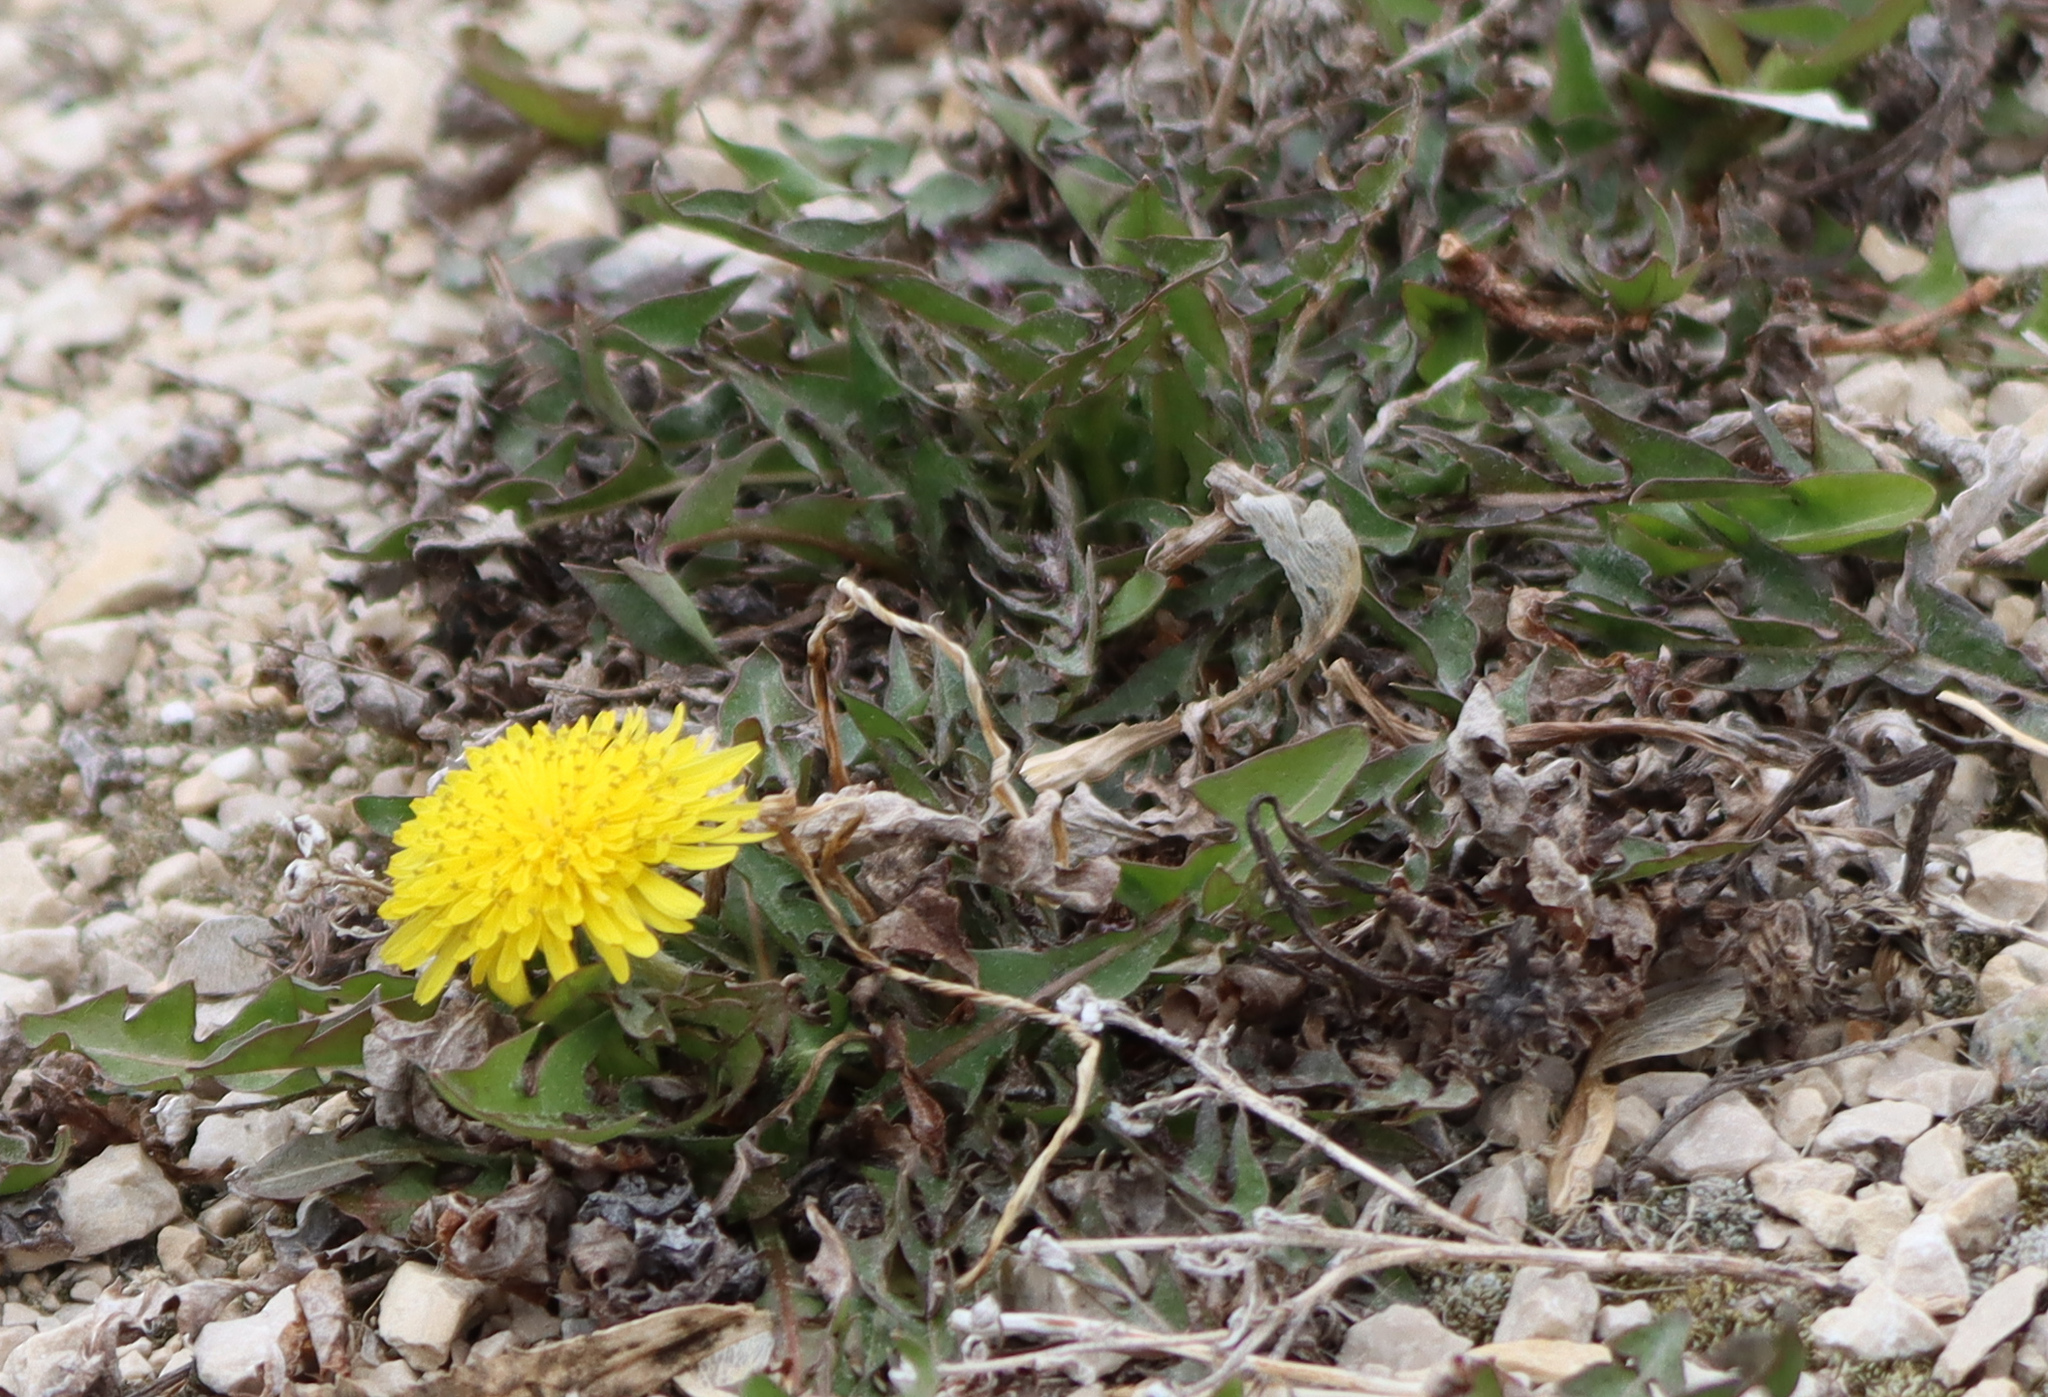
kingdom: Plantae
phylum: Tracheophyta
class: Magnoliopsida
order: Asterales
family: Asteraceae
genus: Taraxacum
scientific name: Taraxacum officinale
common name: Common dandelion
